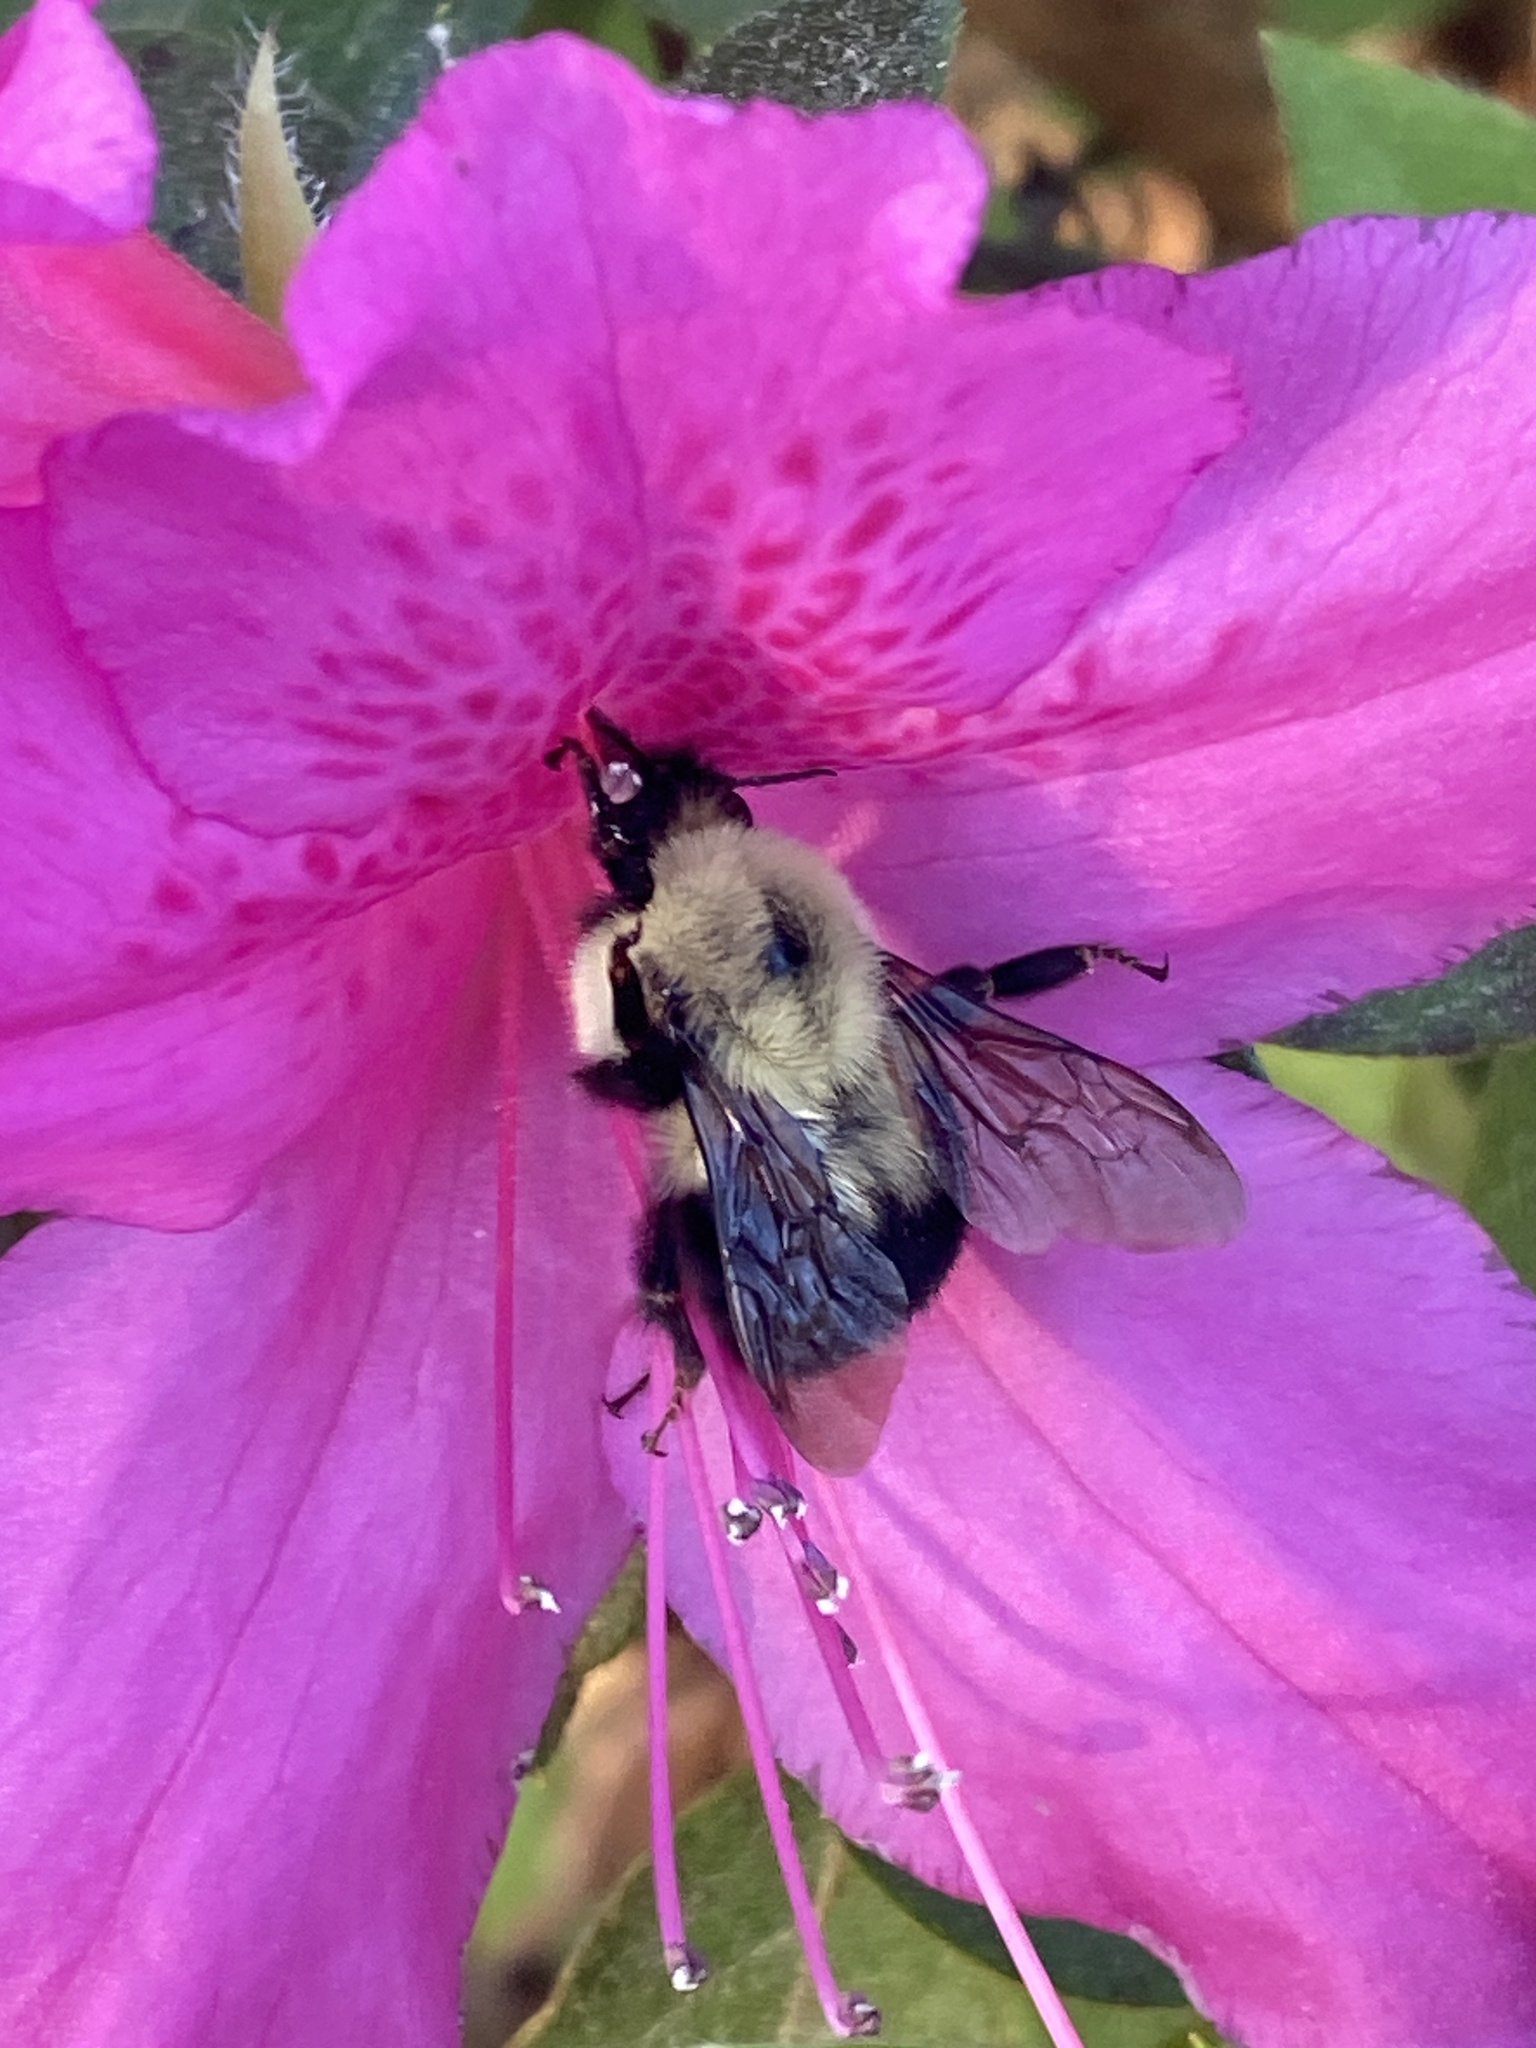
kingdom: Animalia
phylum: Arthropoda
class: Insecta
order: Hymenoptera
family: Apidae
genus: Bombus
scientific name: Bombus bimaculatus
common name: Two-spotted bumble bee
